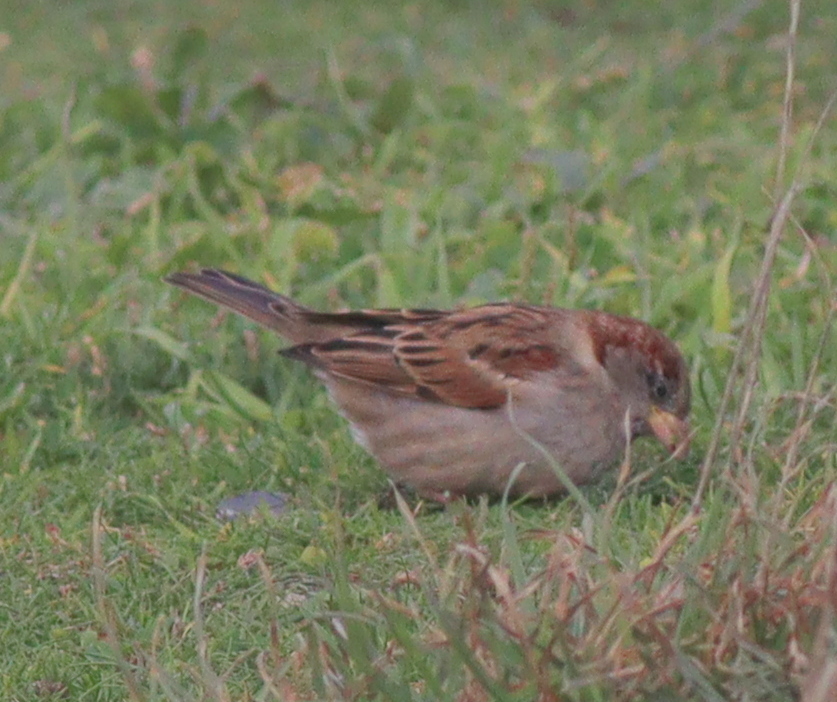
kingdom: Animalia
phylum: Chordata
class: Aves
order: Passeriformes
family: Passeridae
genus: Passer
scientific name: Passer domesticus
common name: House sparrow
